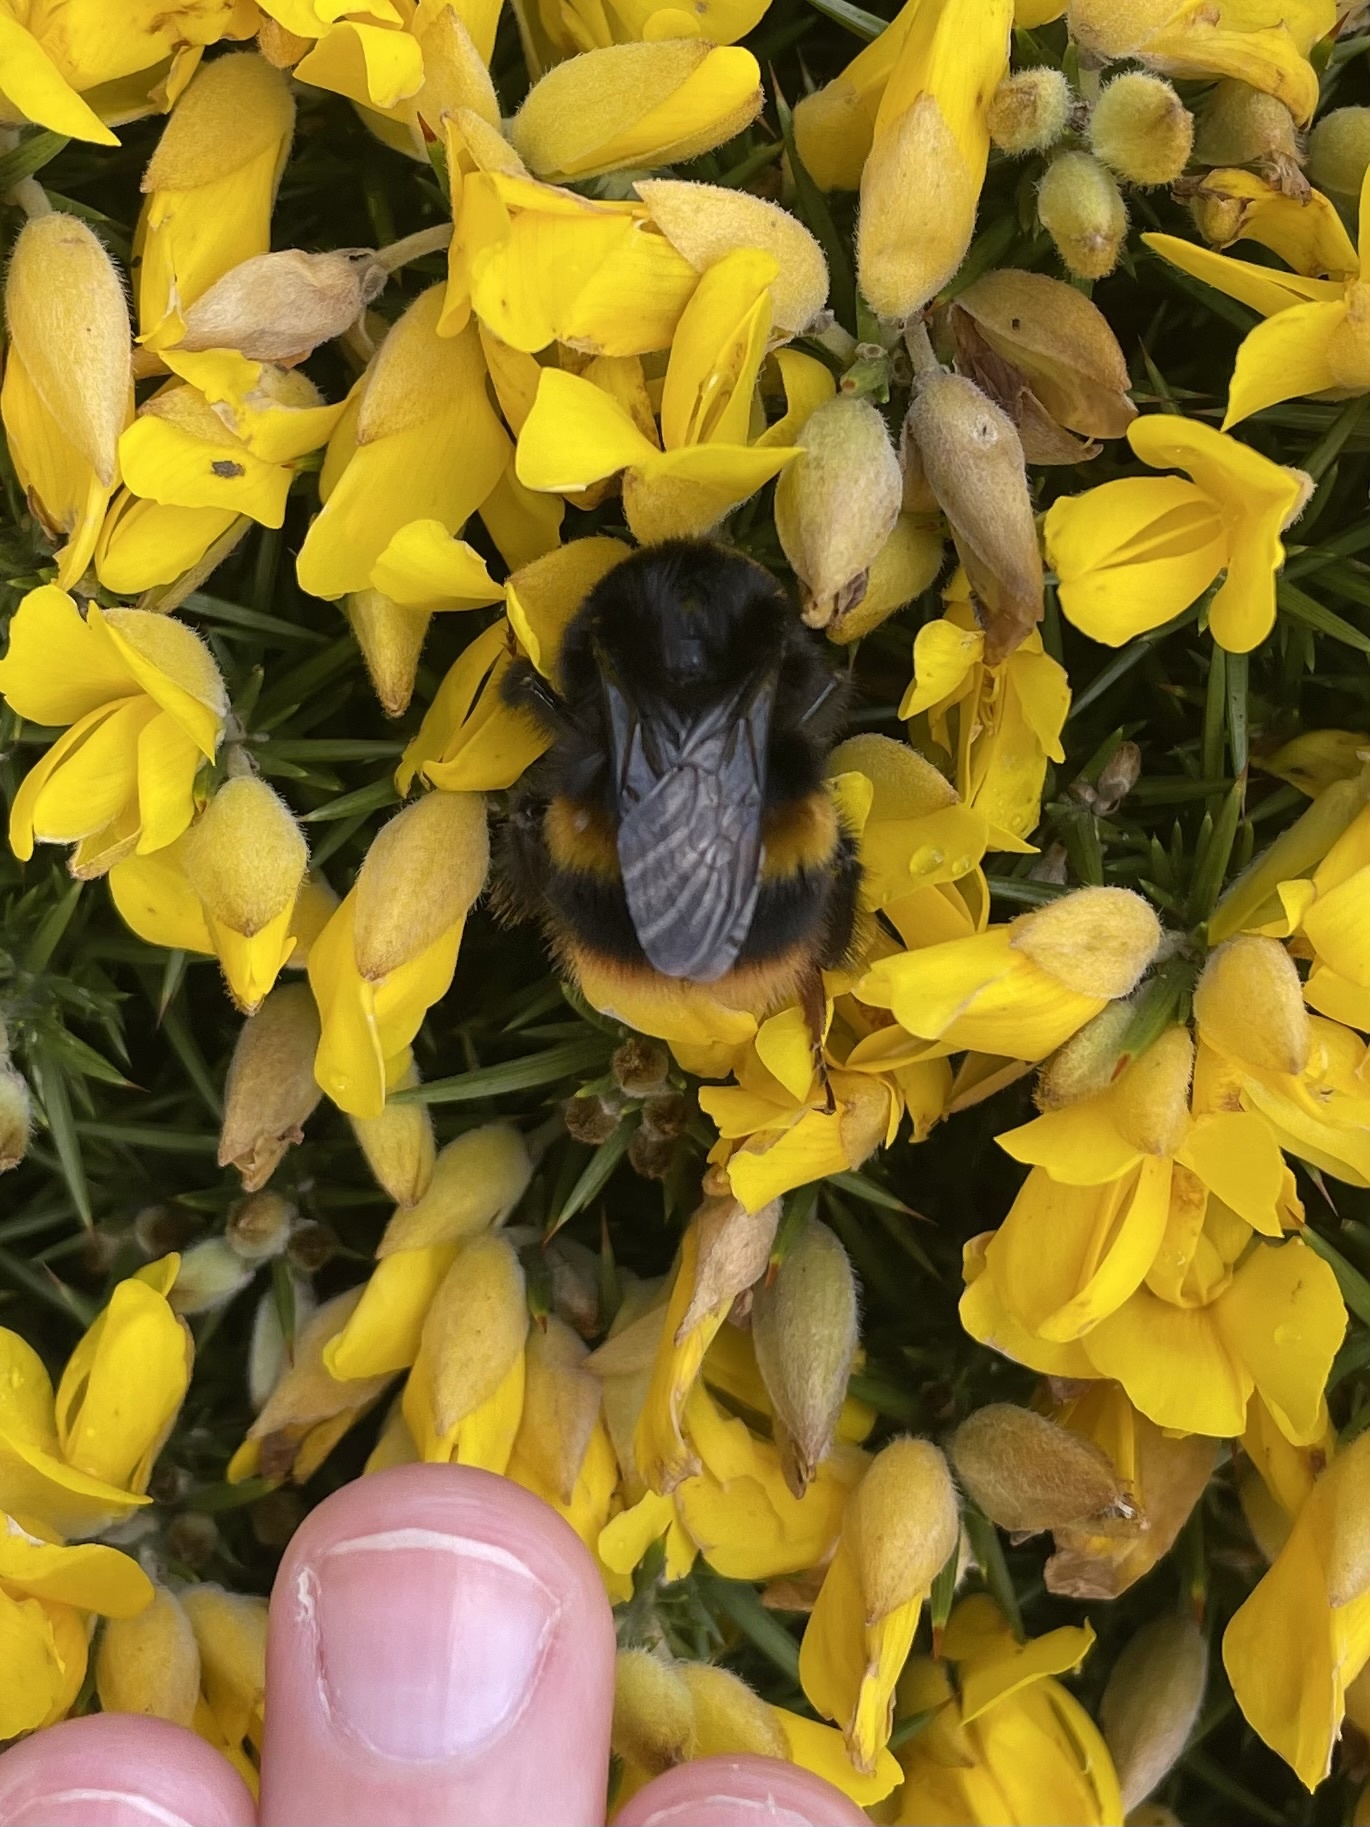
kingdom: Animalia
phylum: Arthropoda
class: Insecta
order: Hymenoptera
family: Apidae
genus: Bombus
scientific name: Bombus terrestris
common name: Buff-tailed bumblebee
